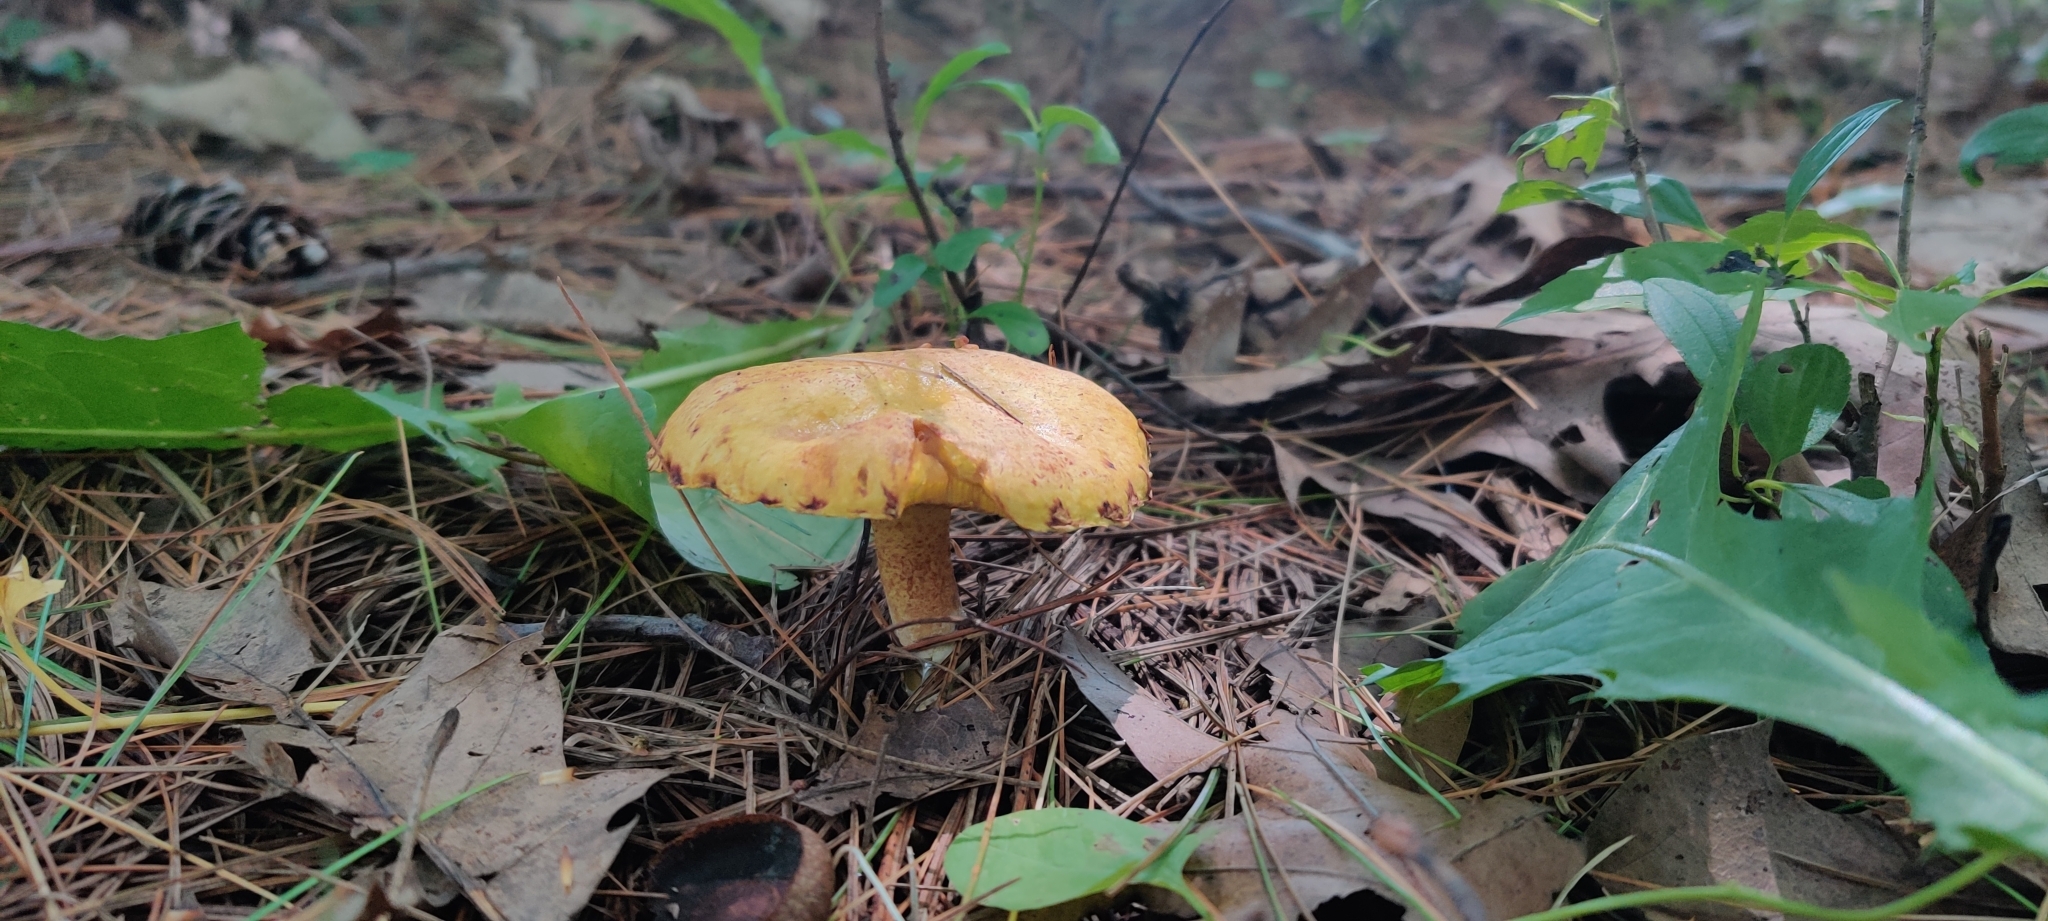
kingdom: Fungi
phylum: Basidiomycota
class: Agaricomycetes
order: Boletales
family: Suillaceae
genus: Suillus
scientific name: Suillus americanus
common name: Chicken fat mushroom
